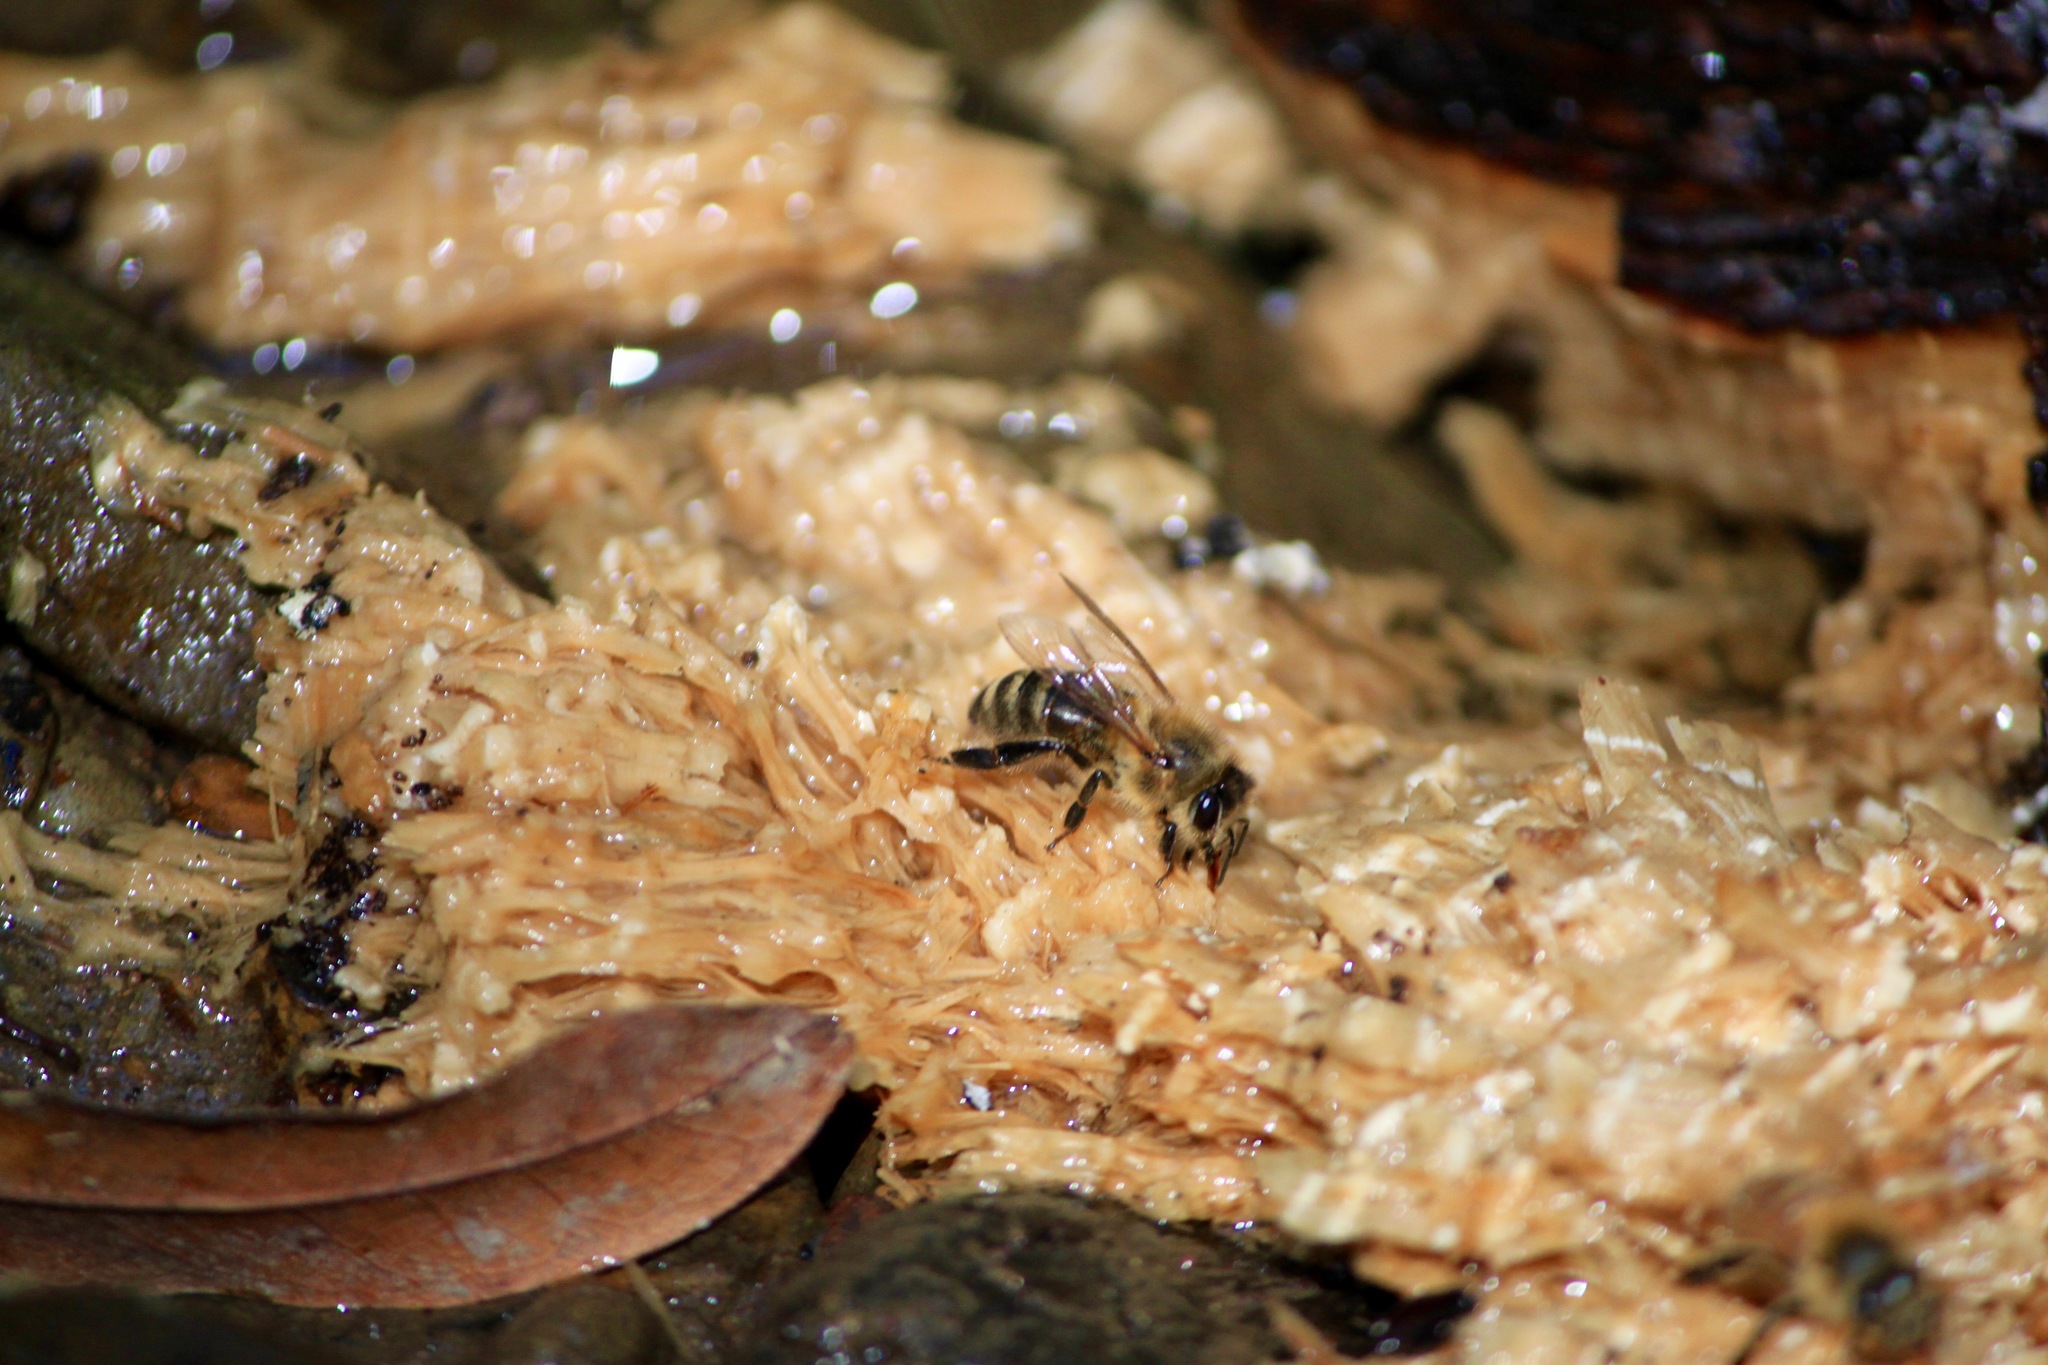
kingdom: Animalia
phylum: Arthropoda
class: Insecta
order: Hymenoptera
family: Apidae
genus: Apis
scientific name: Apis mellifera
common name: Honey bee
